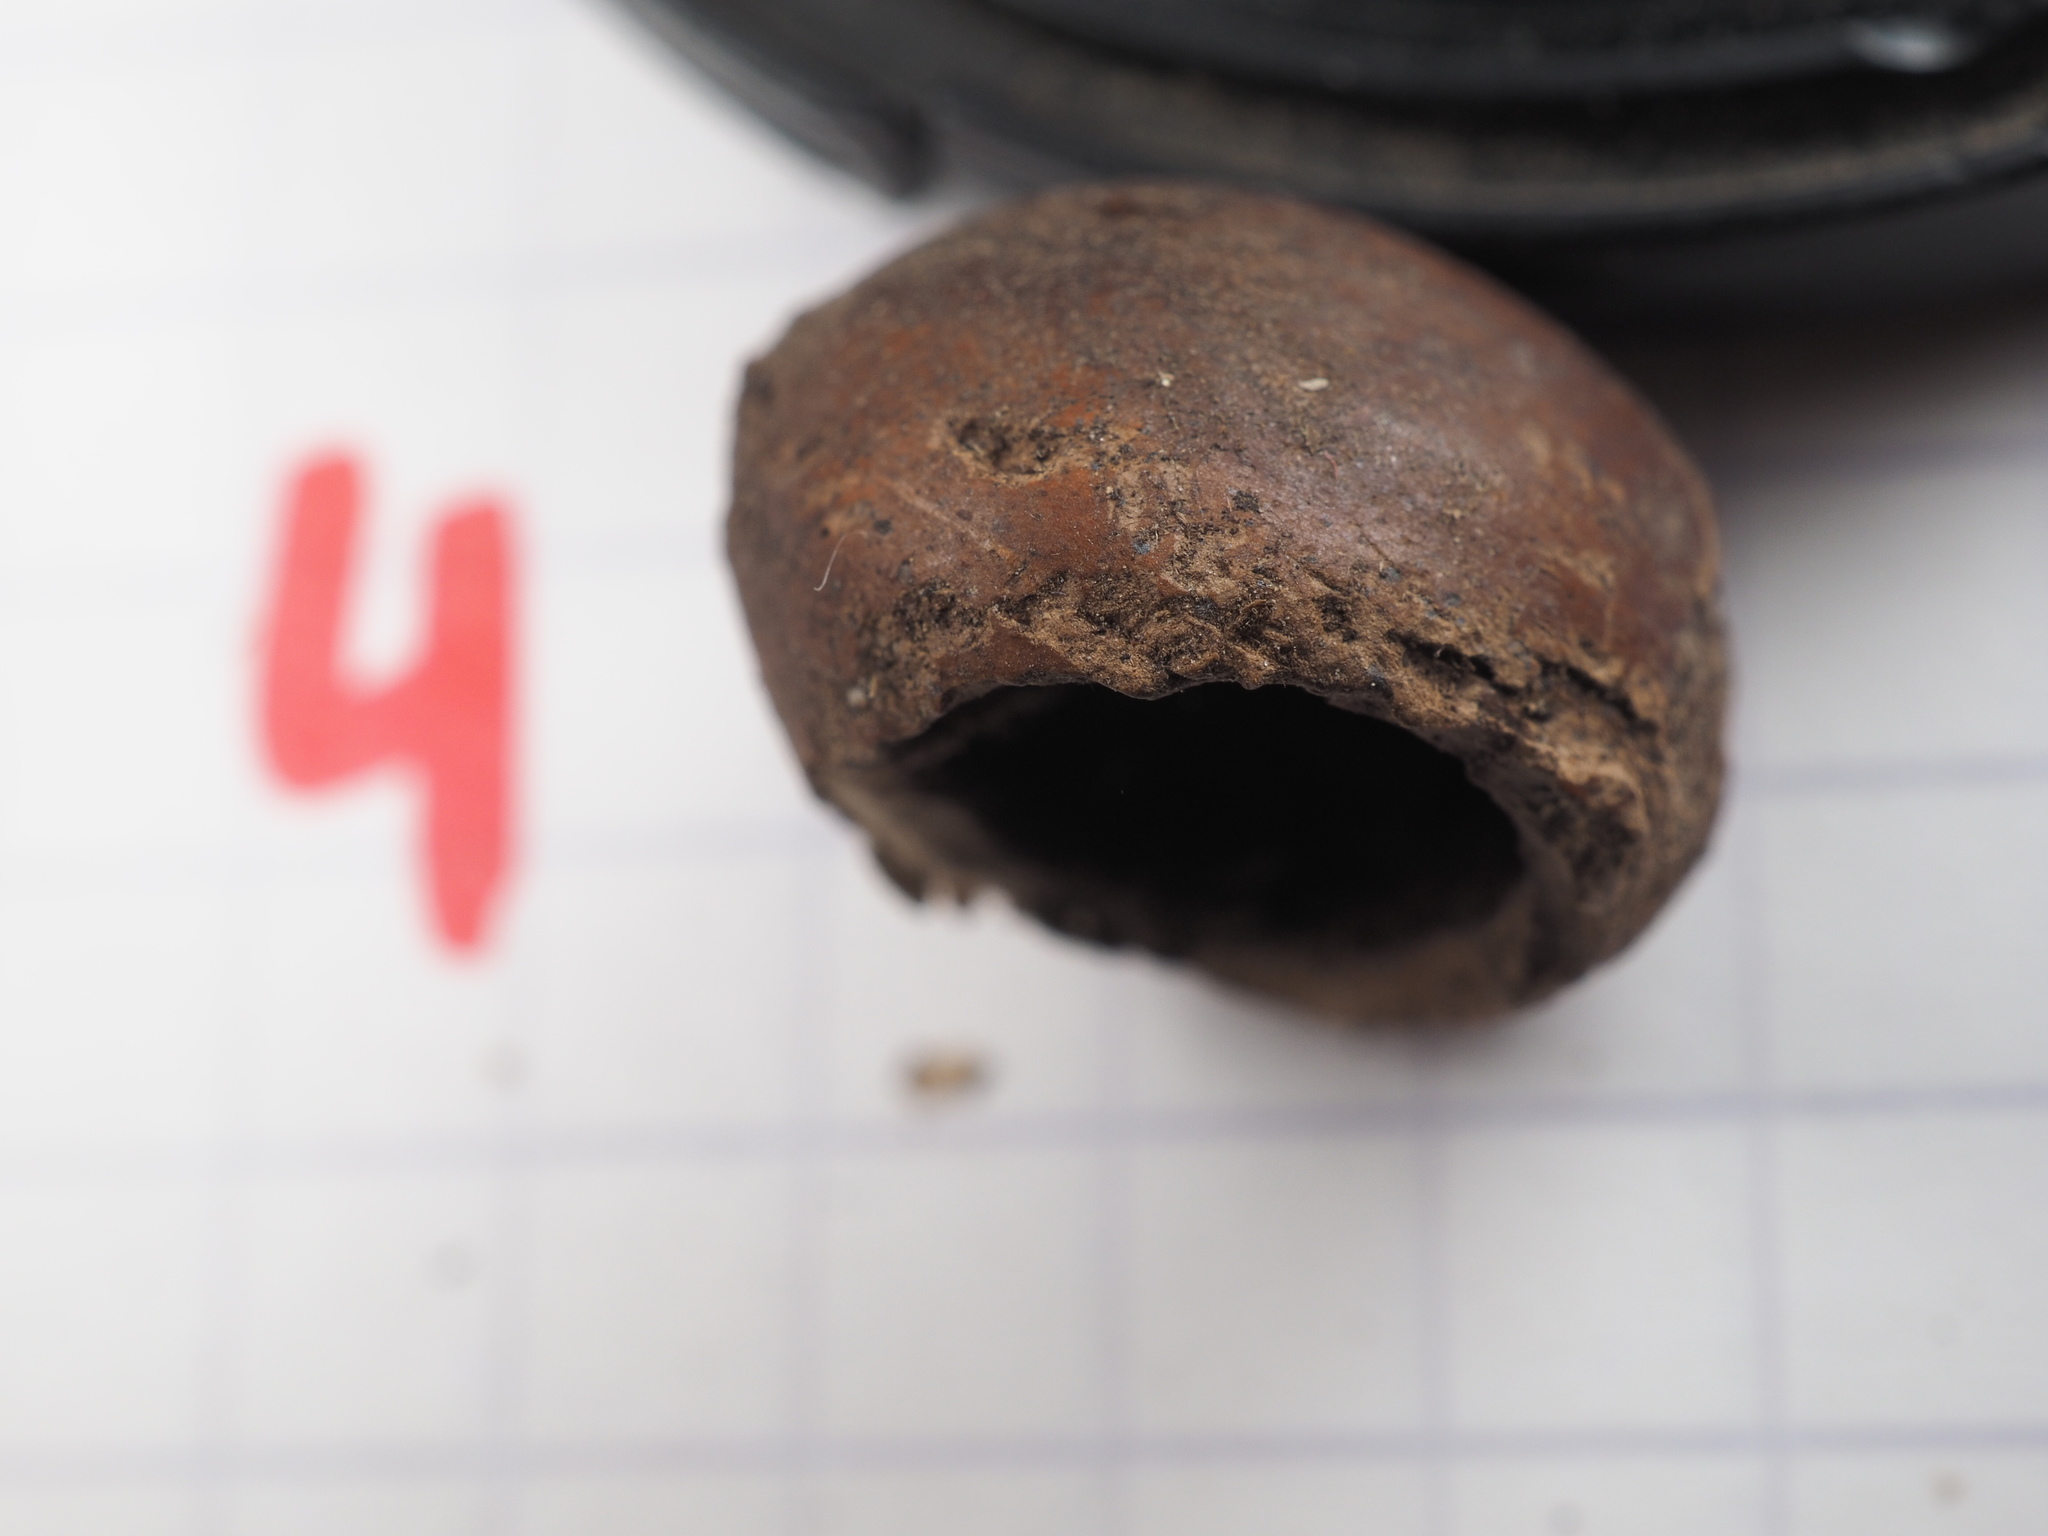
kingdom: Animalia
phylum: Chordata
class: Mammalia
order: Rodentia
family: Gliridae
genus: Muscardinus
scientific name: Muscardinus avellanarius
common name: Hazel dormouse
